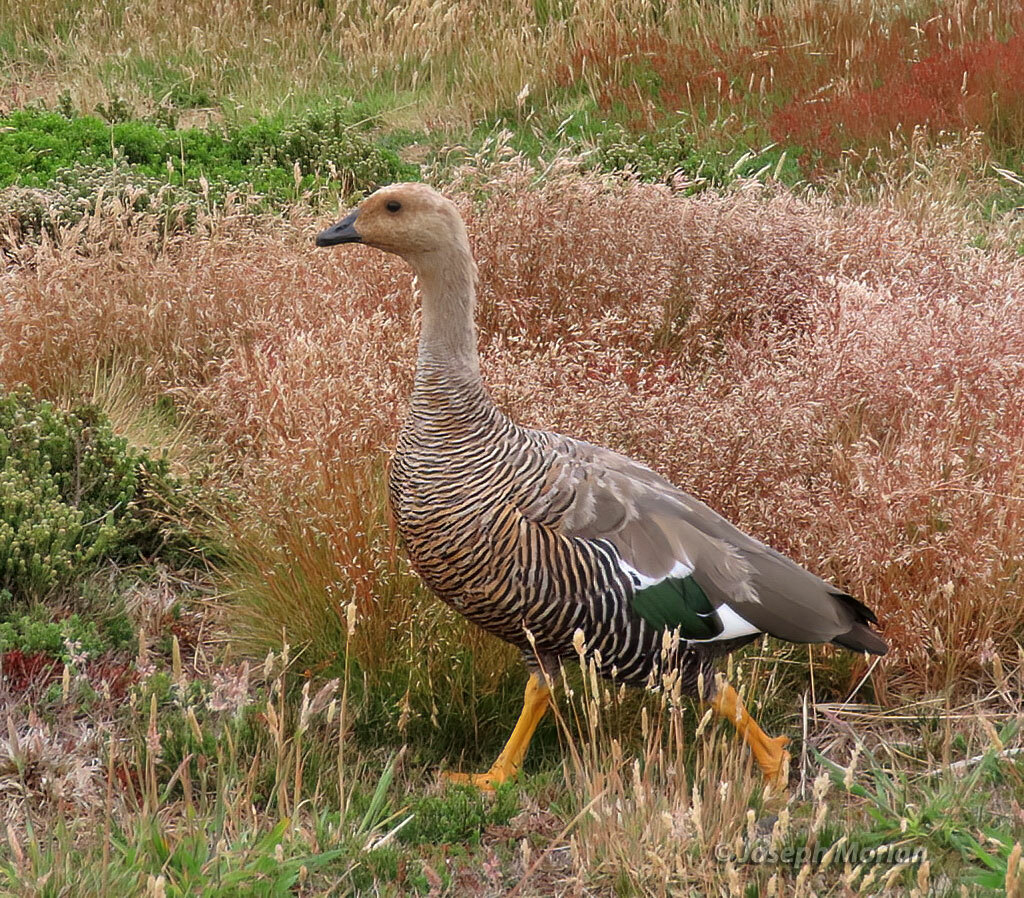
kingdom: Animalia
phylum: Chordata
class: Aves
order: Anseriformes
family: Anatidae
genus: Chloephaga
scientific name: Chloephaga picta
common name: Upland goose
